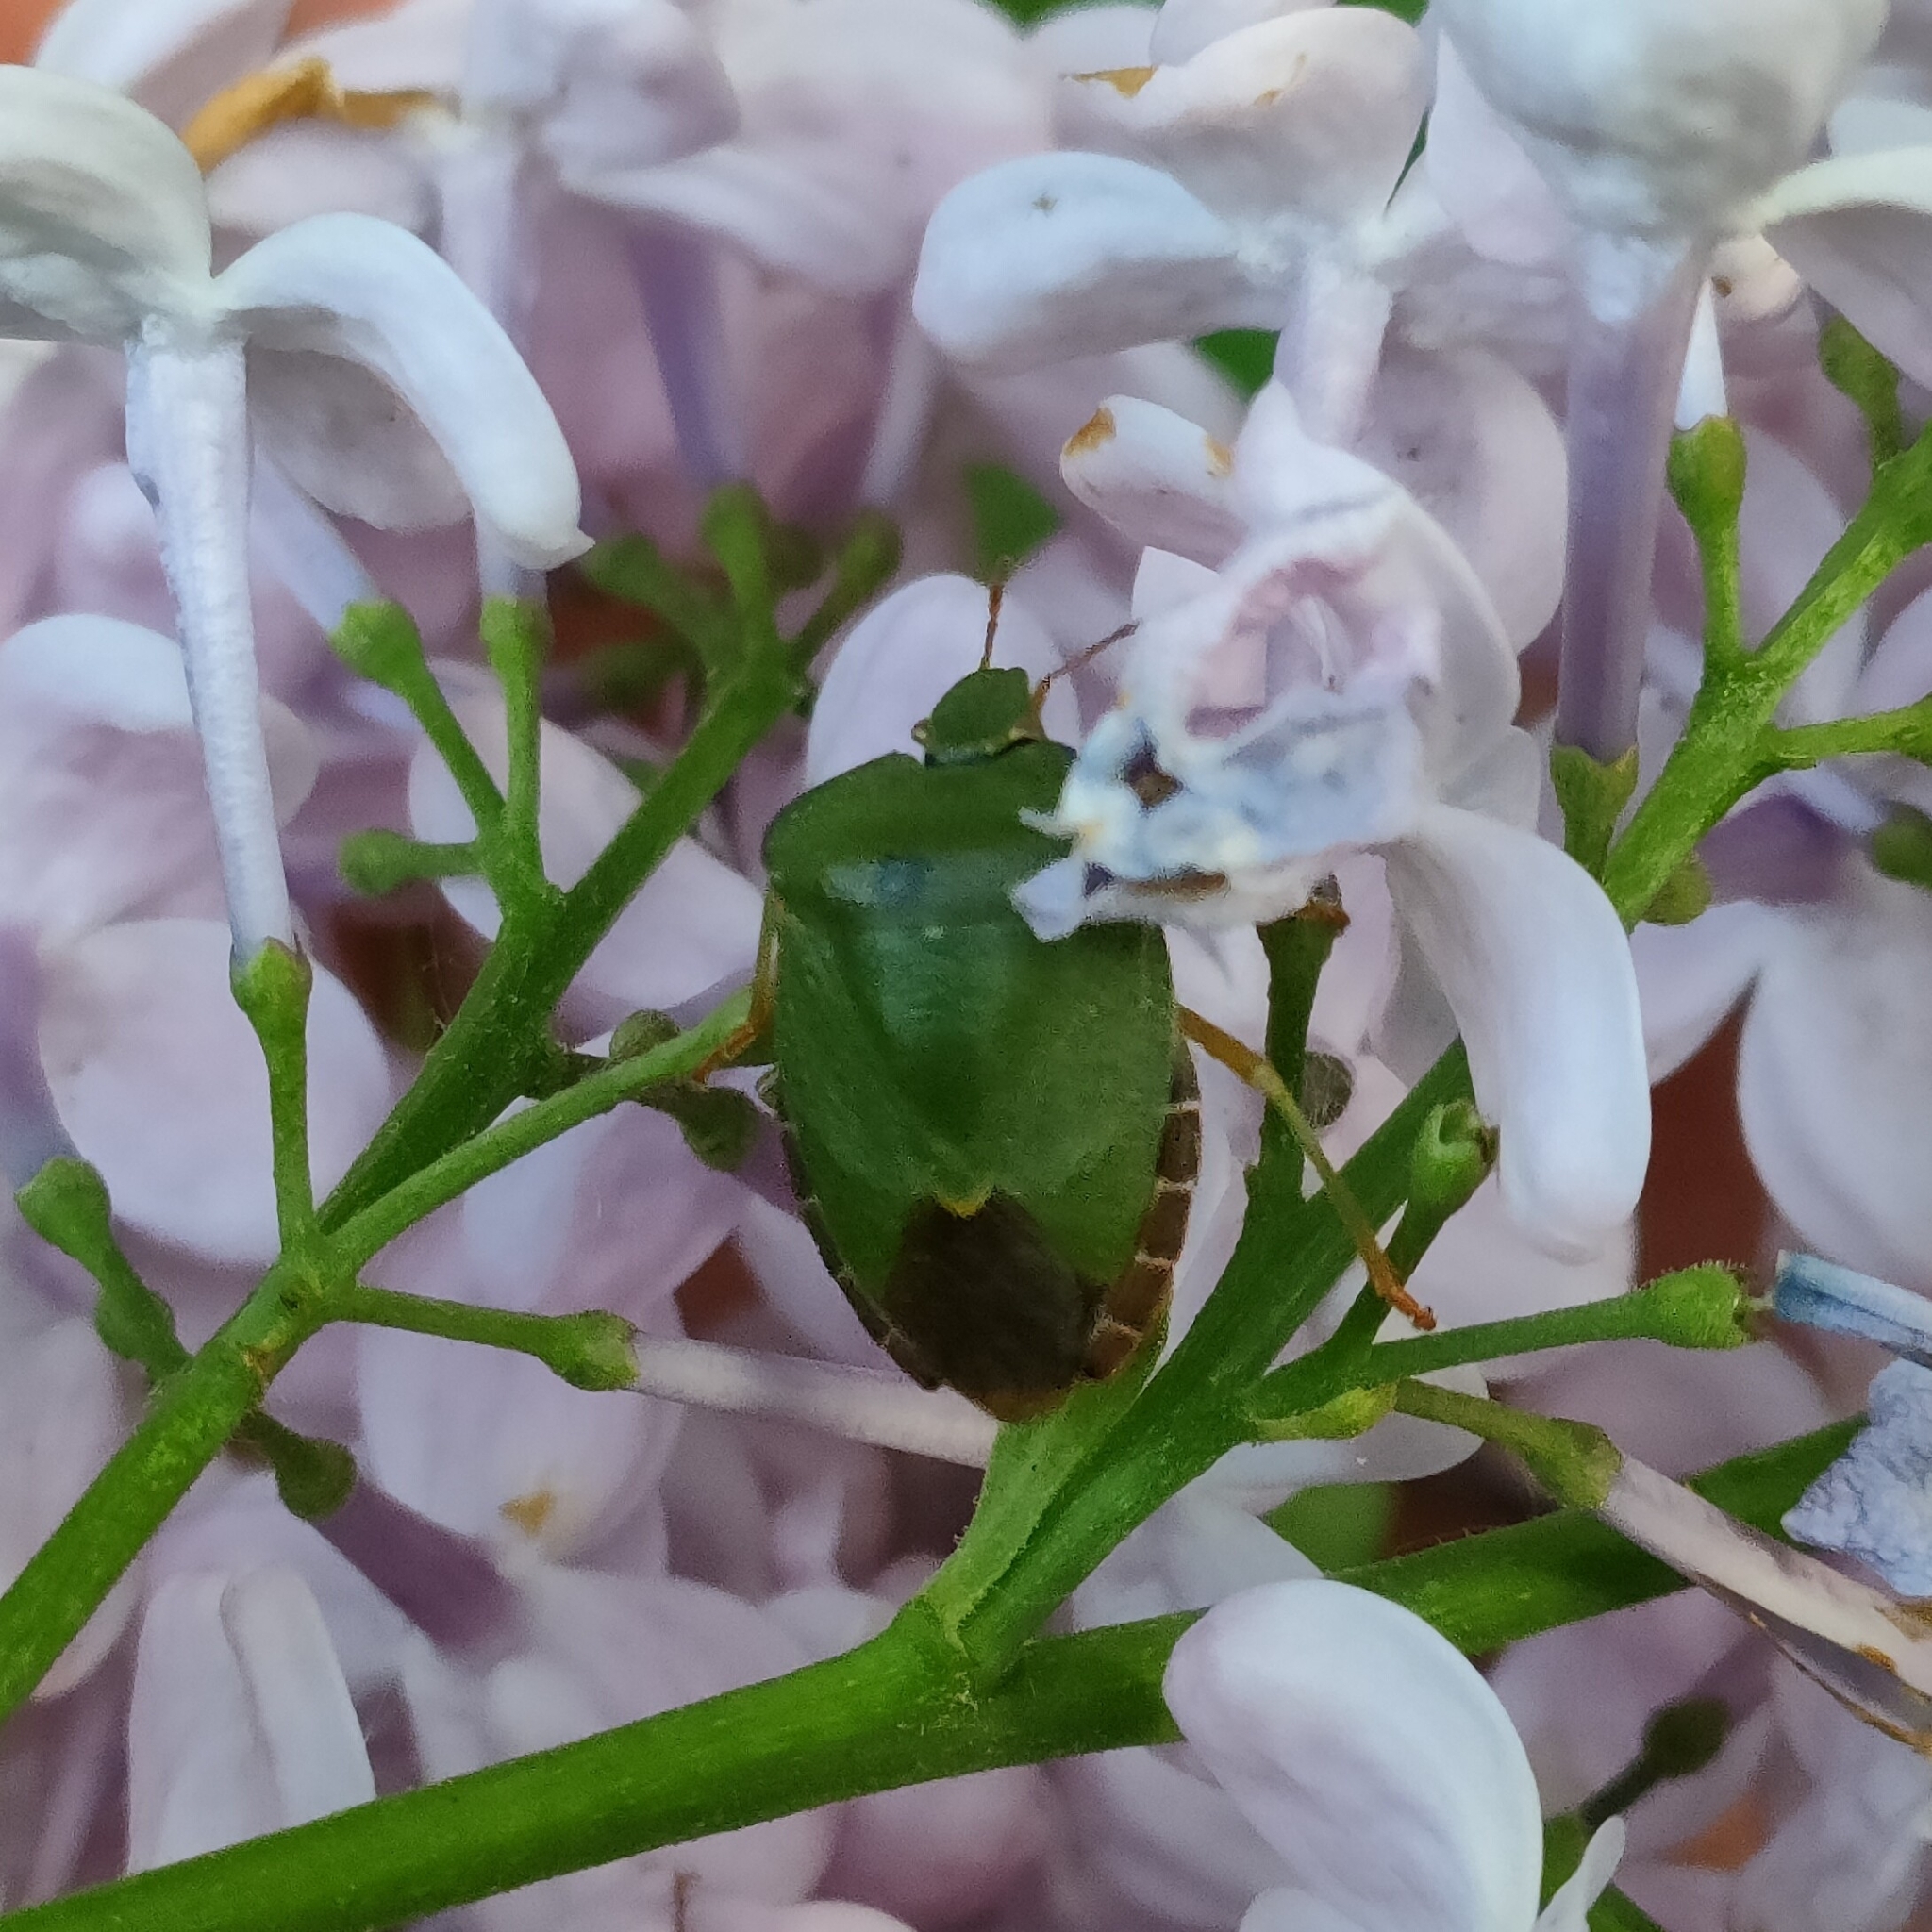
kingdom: Animalia
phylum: Arthropoda
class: Insecta
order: Hemiptera
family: Pentatomidae
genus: Palomena
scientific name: Palomena prasina
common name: Green shieldbug
